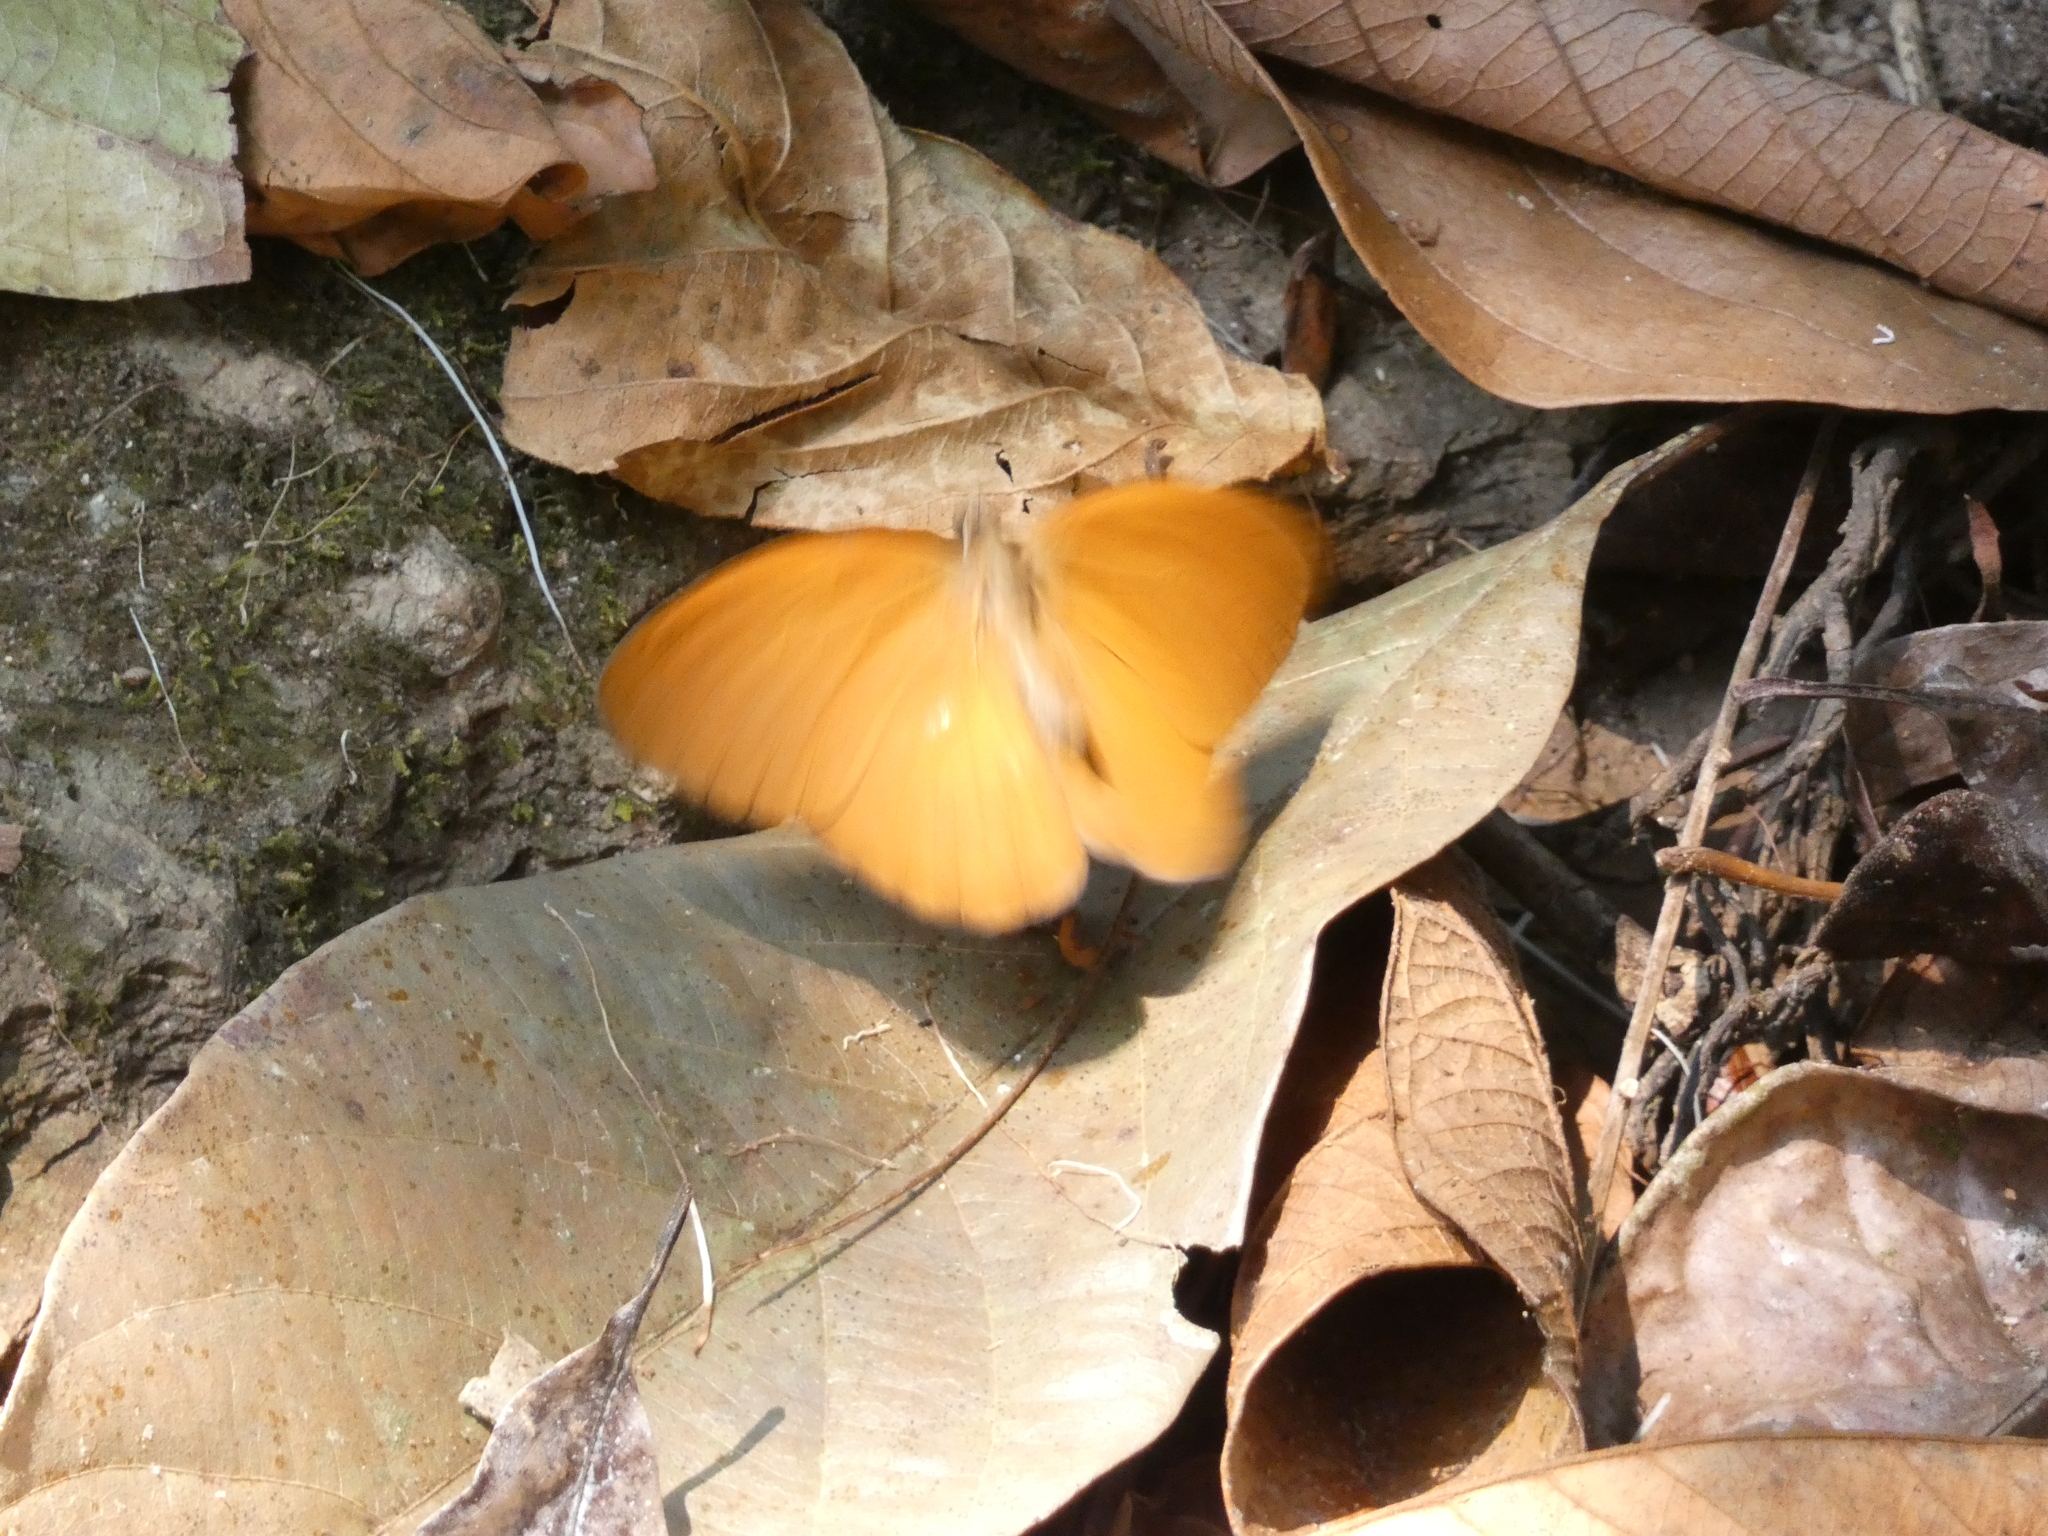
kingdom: Animalia
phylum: Arthropoda
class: Insecta
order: Lepidoptera
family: Nymphalidae
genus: Faunis
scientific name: Faunis canens
